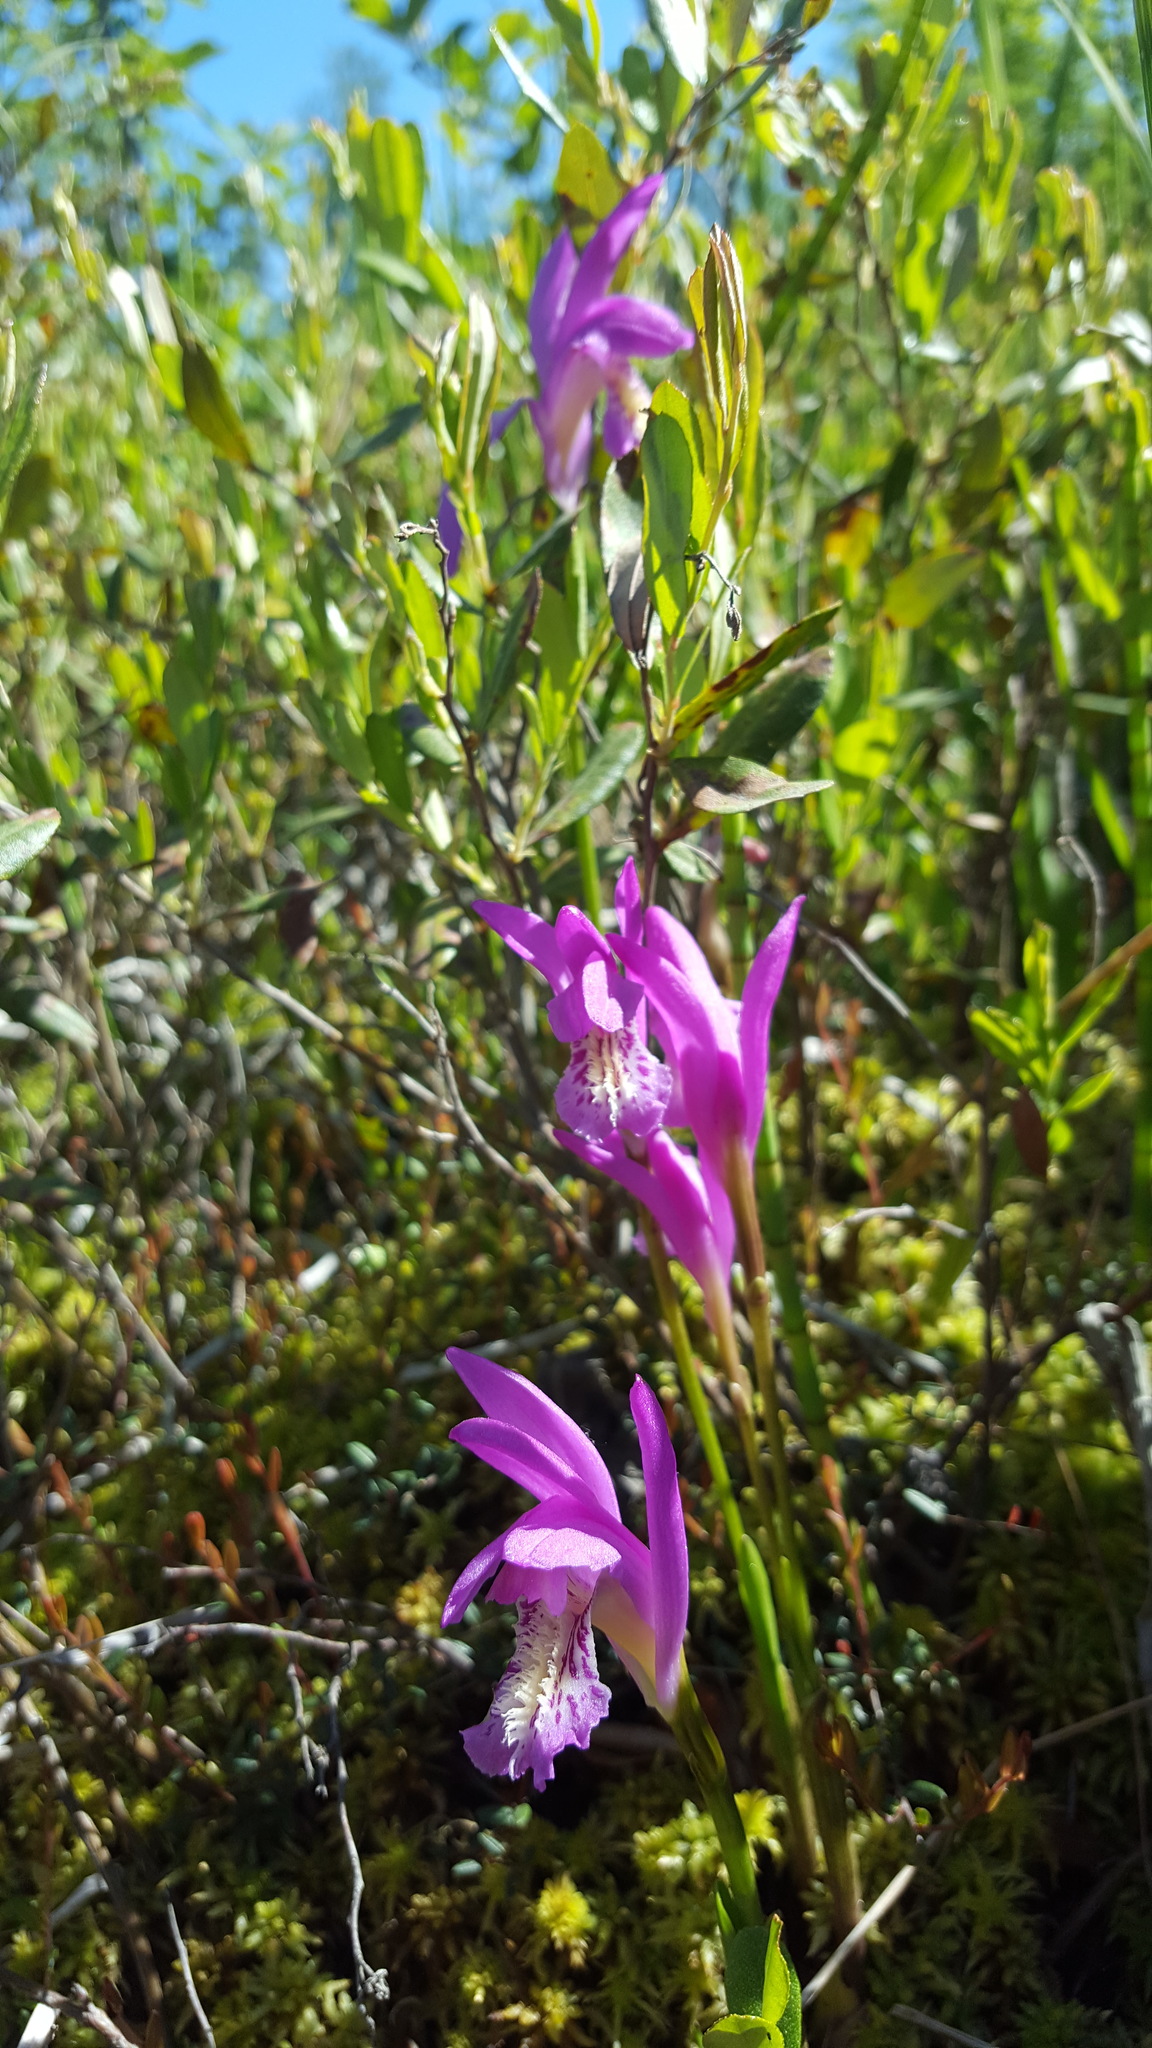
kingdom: Plantae
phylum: Tracheophyta
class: Liliopsida
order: Asparagales
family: Orchidaceae
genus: Arethusa
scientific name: Arethusa bulbosa
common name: Arethusa
